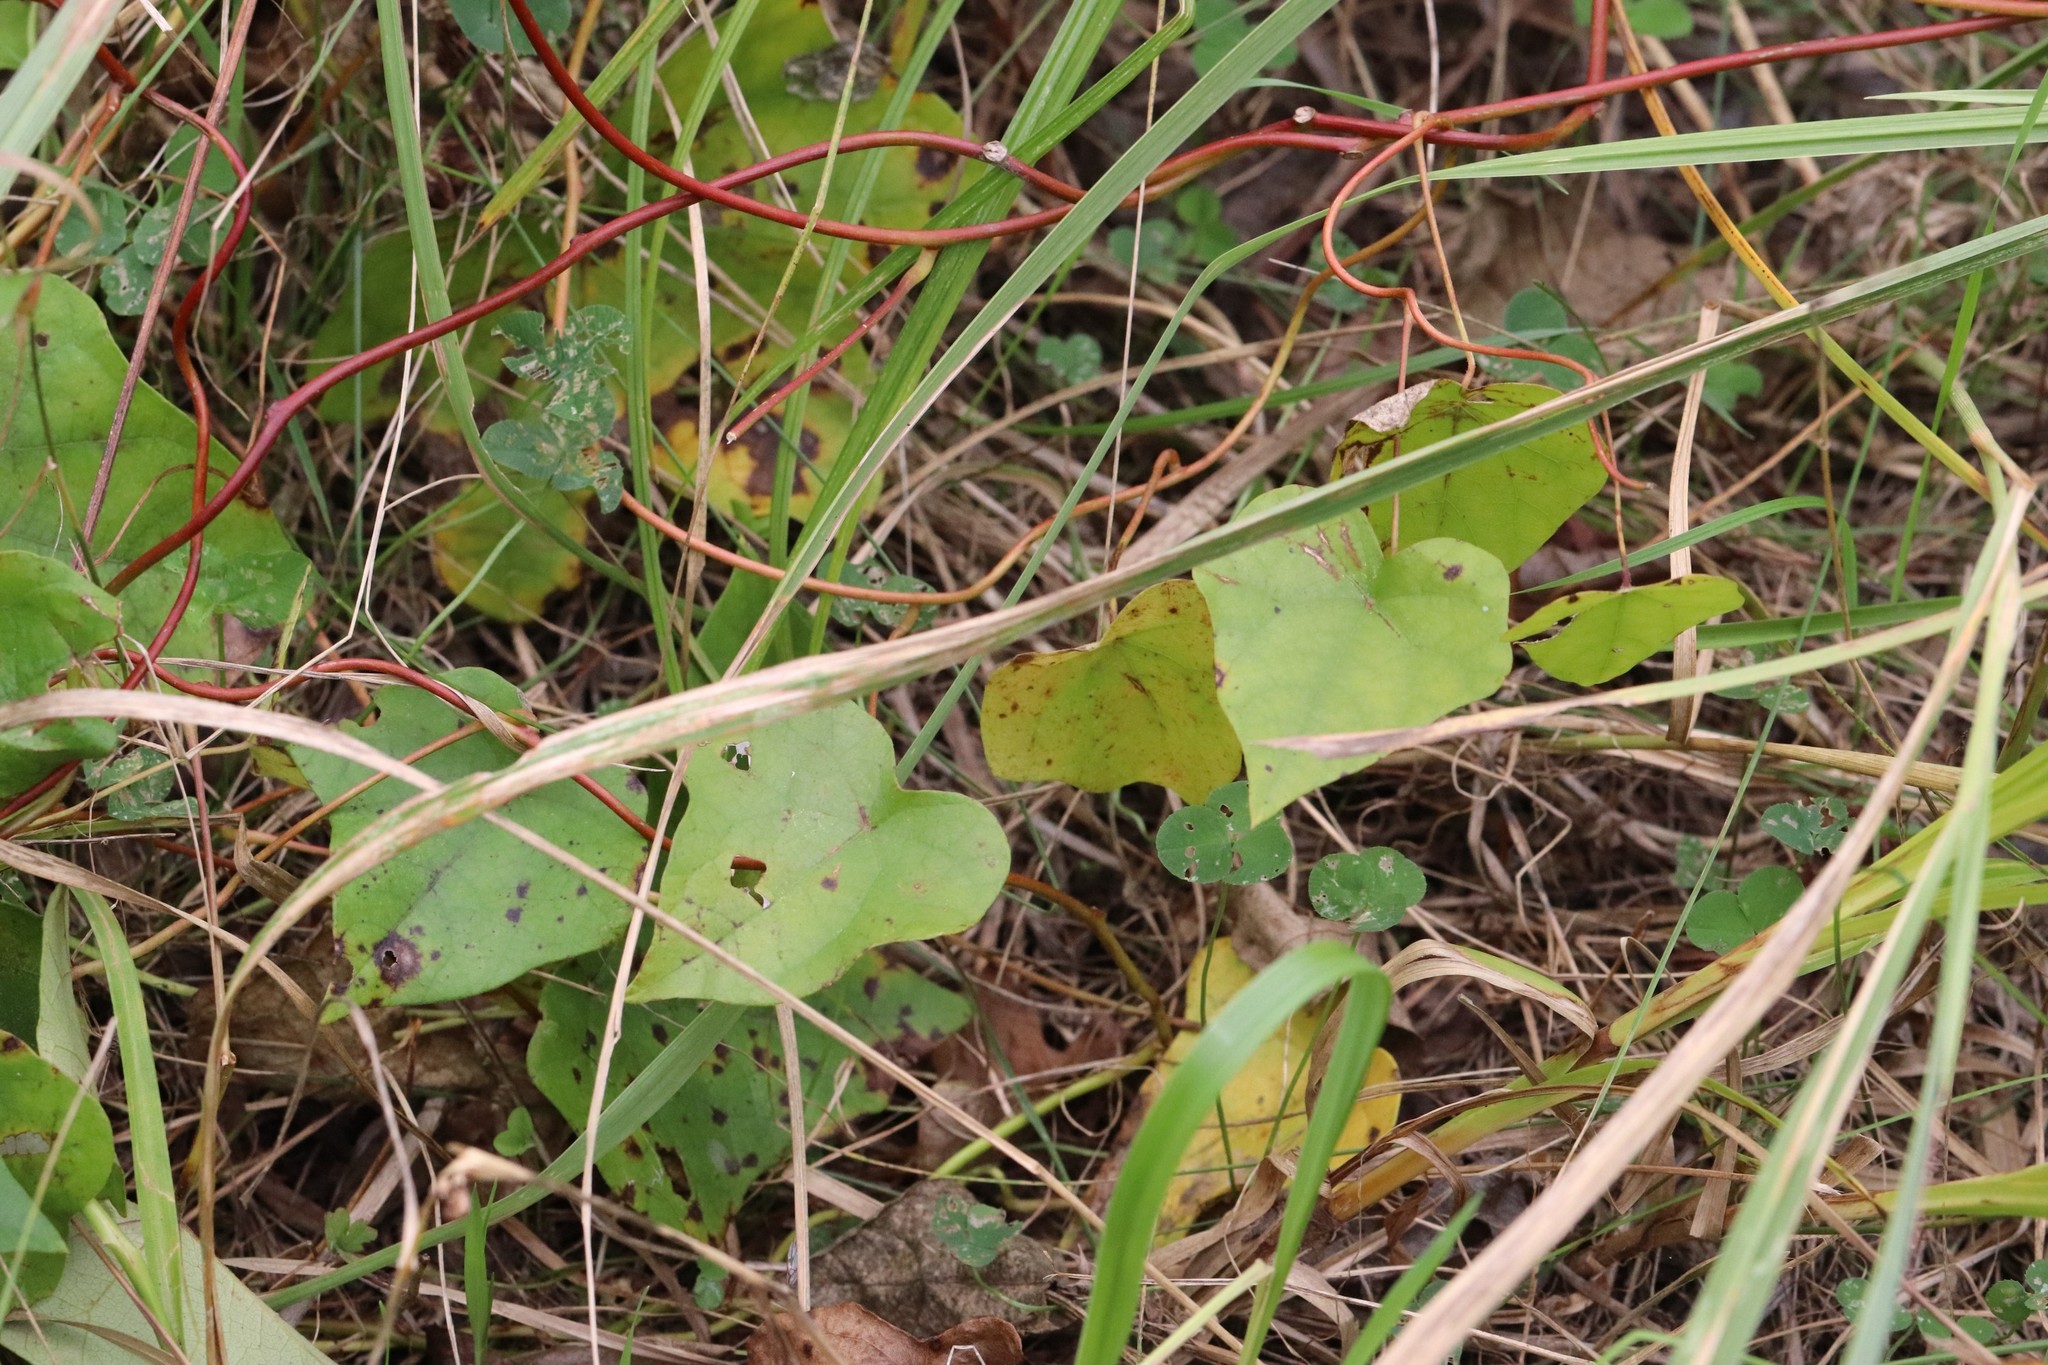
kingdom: Plantae
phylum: Tracheophyta
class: Magnoliopsida
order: Ranunculales
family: Menispermaceae
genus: Menispermum
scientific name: Menispermum dauricum
